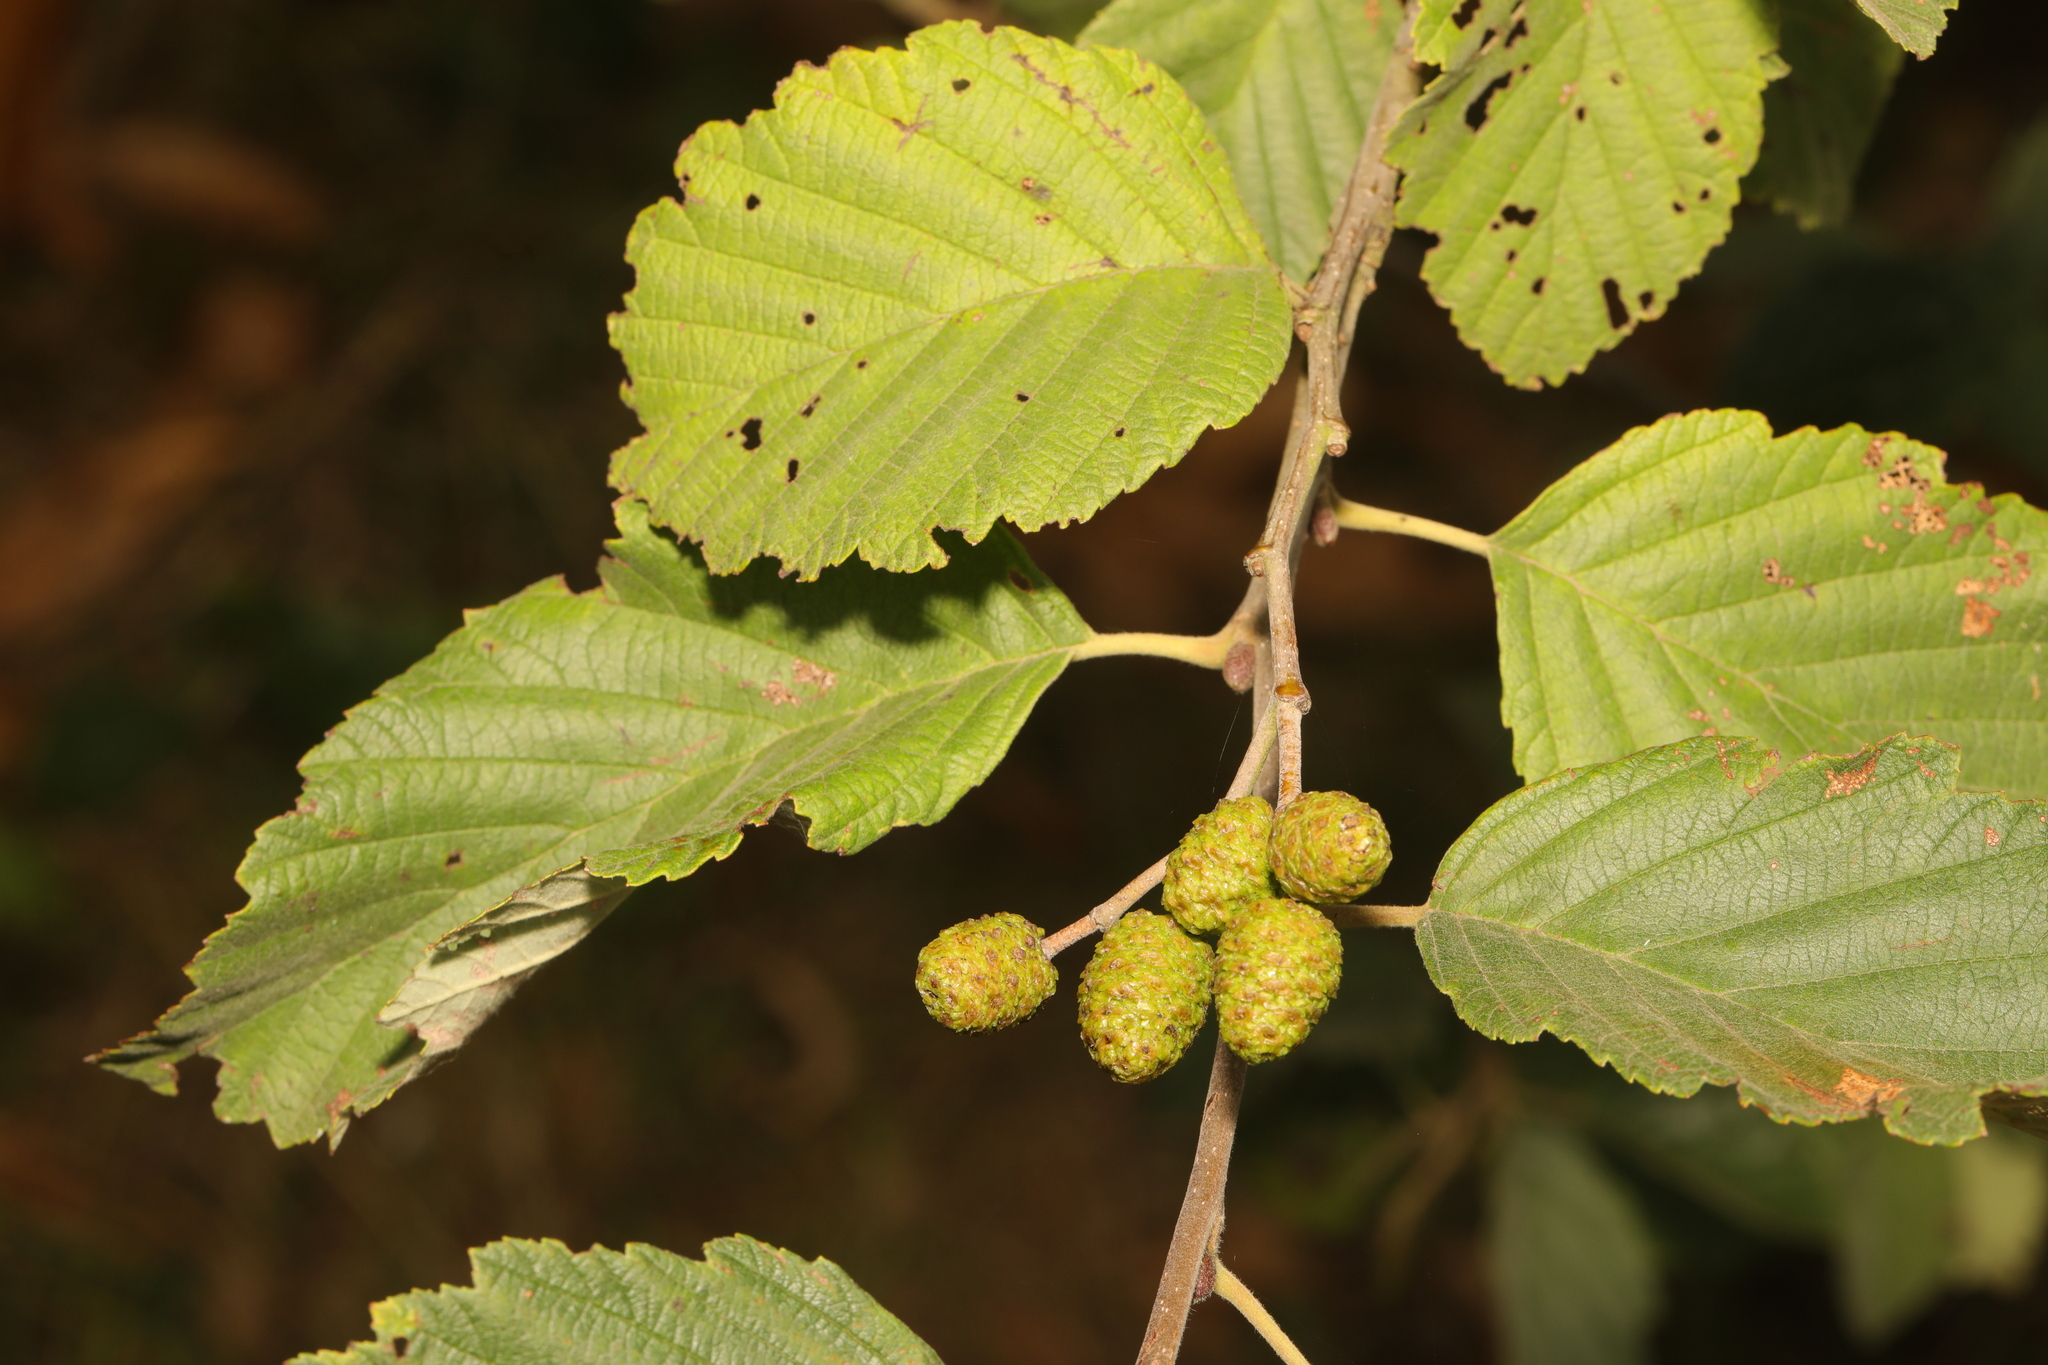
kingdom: Plantae
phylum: Tracheophyta
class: Magnoliopsida
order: Fagales
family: Betulaceae
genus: Alnus
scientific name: Alnus incana
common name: Grey alder
